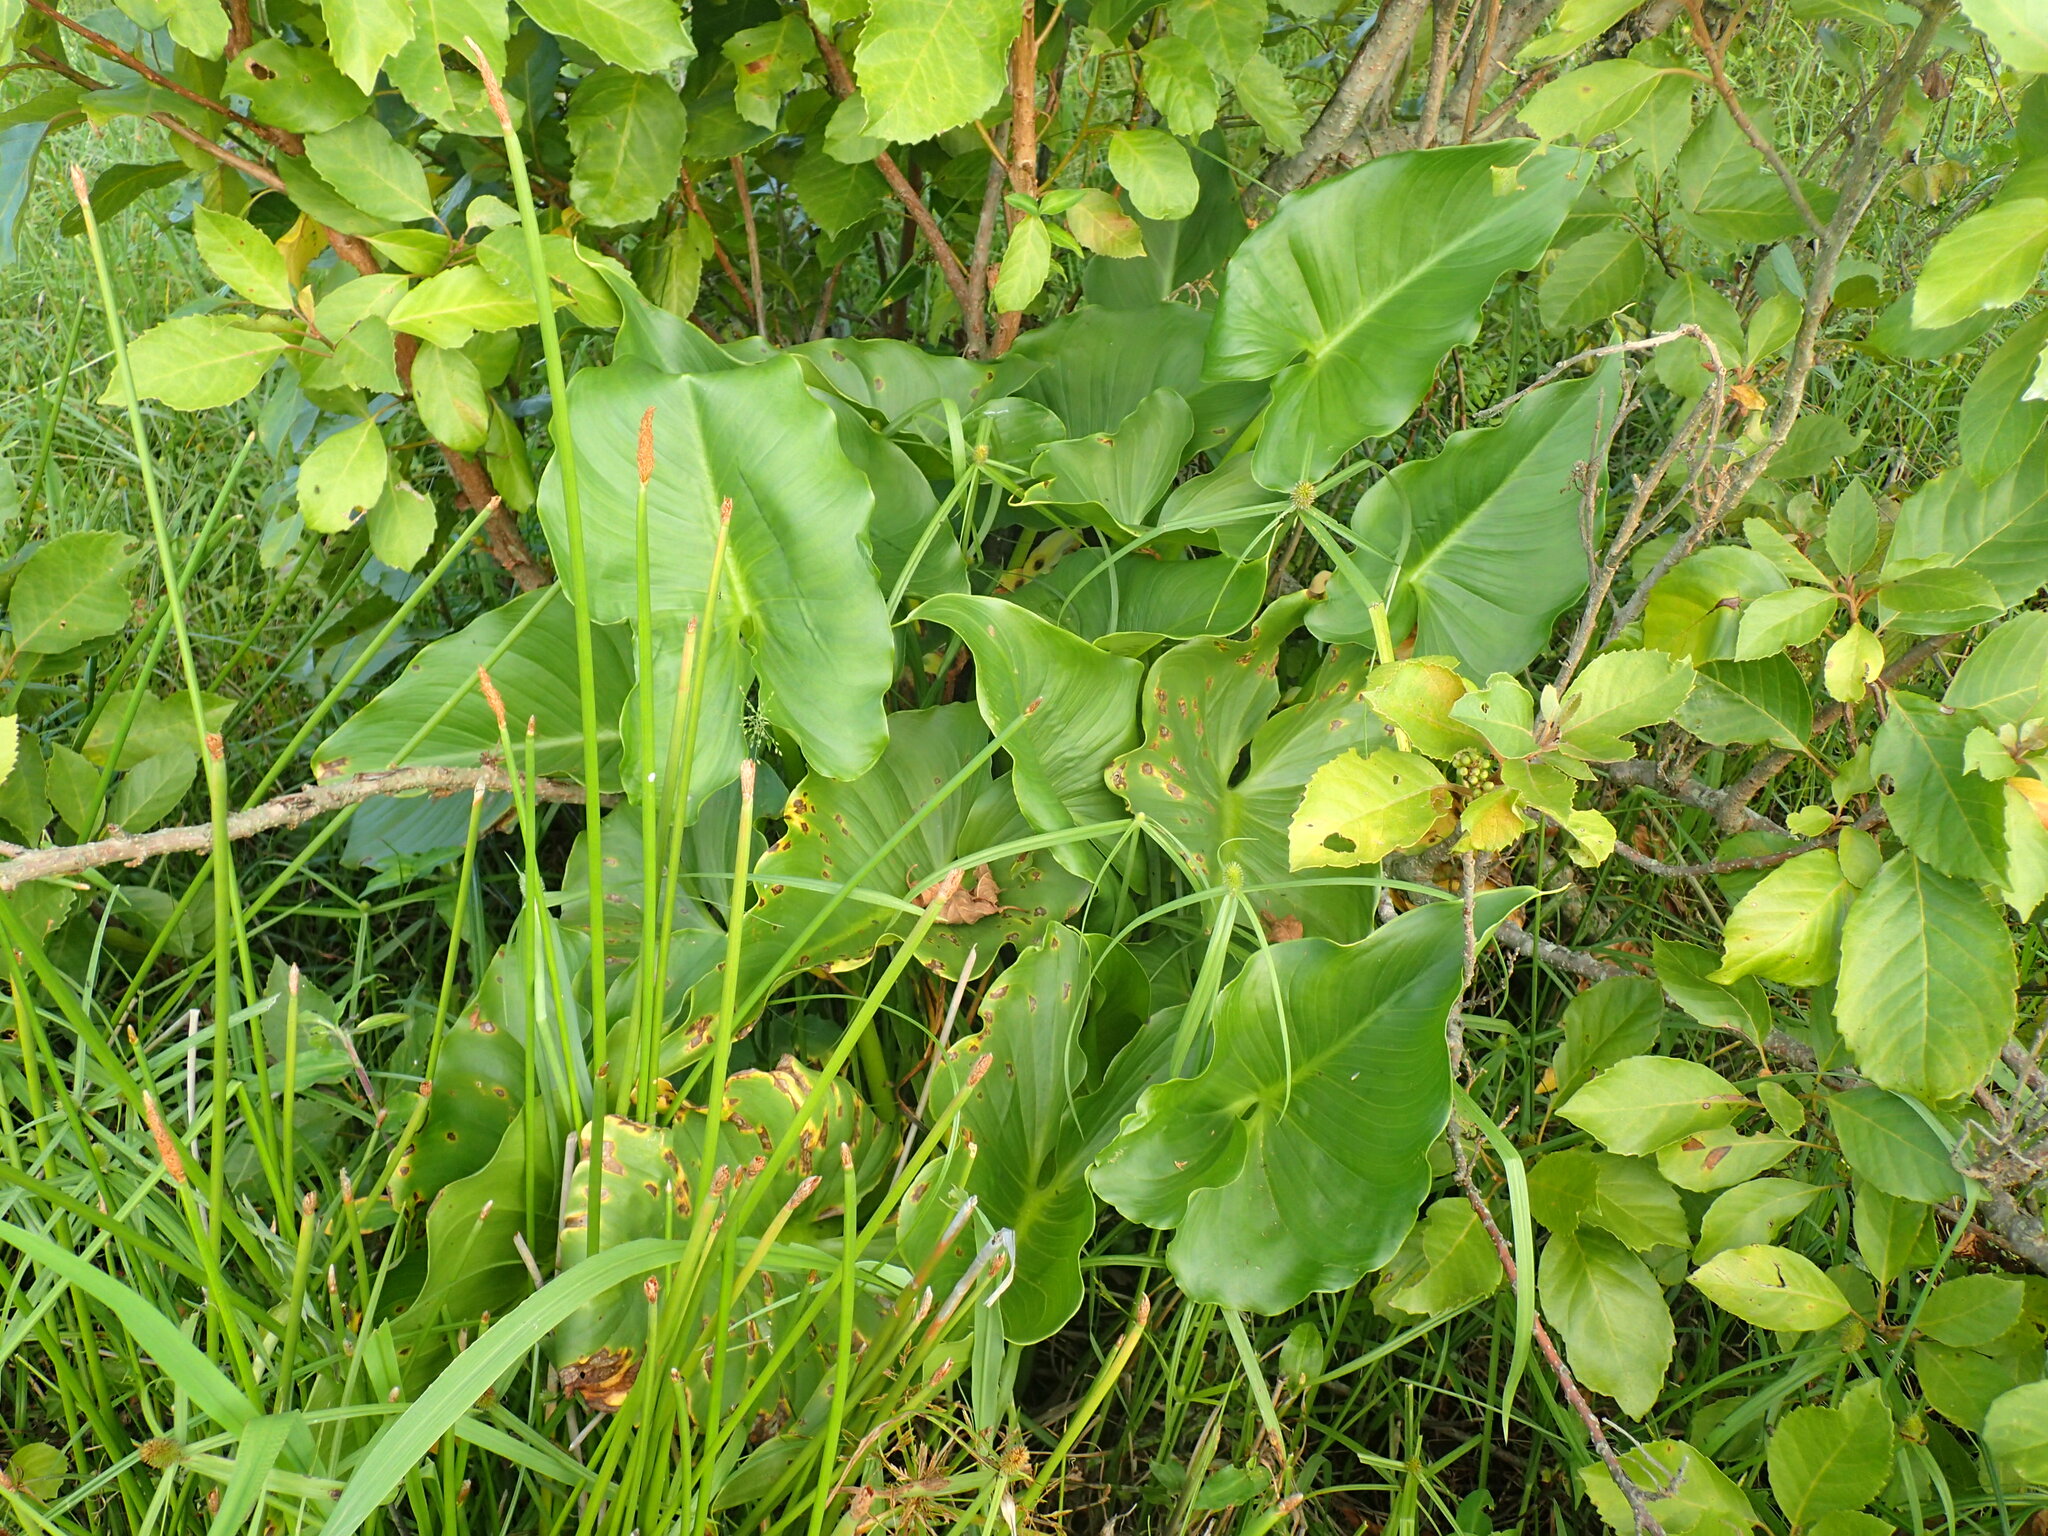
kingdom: Plantae
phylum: Tracheophyta
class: Liliopsida
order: Alismatales
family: Araceae
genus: Zantedeschia
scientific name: Zantedeschia aethiopica
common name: Altar-lily
